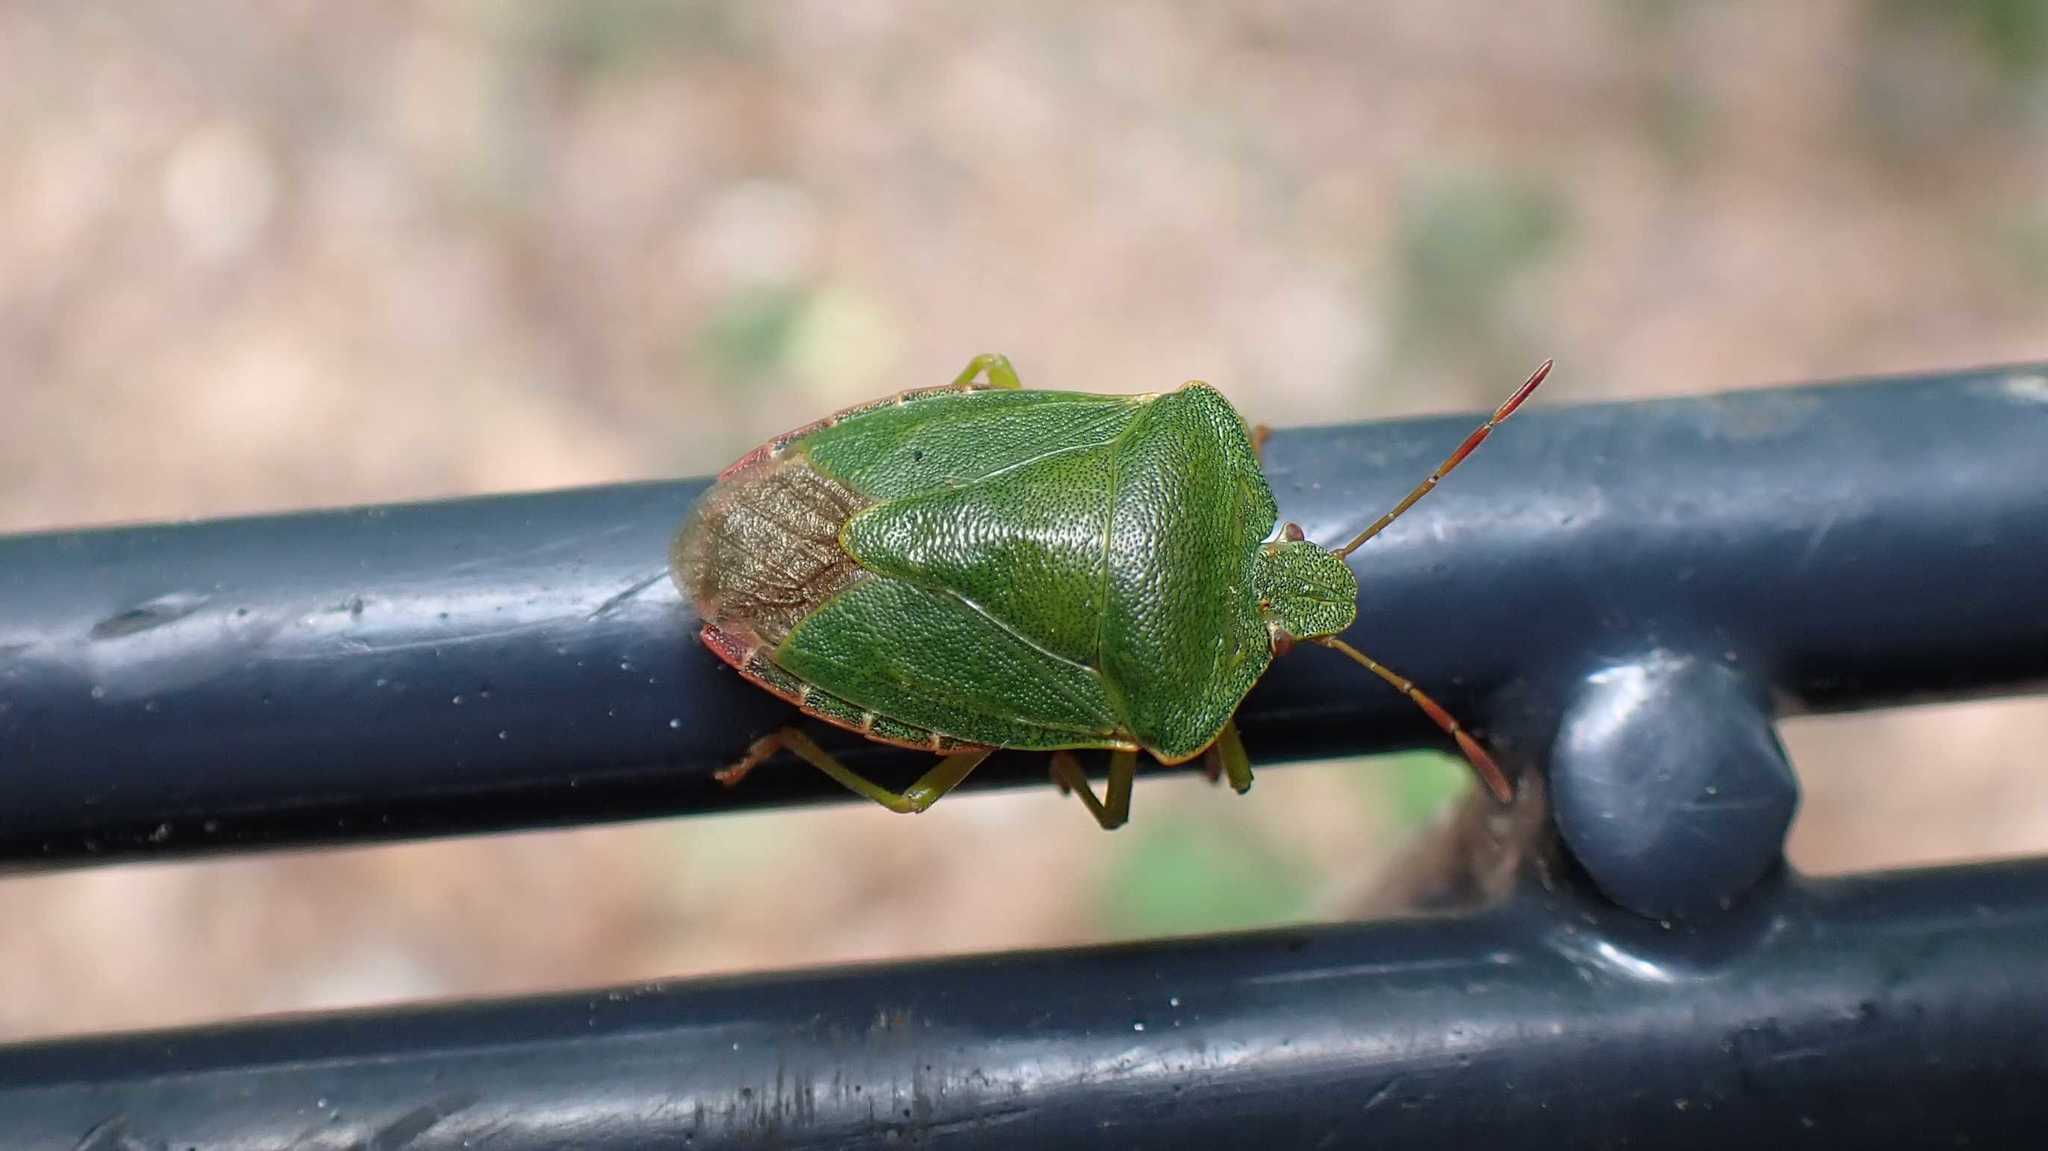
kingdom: Animalia
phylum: Arthropoda
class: Insecta
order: Hemiptera
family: Pentatomidae
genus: Palomena
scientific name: Palomena prasina
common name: Green shieldbug
